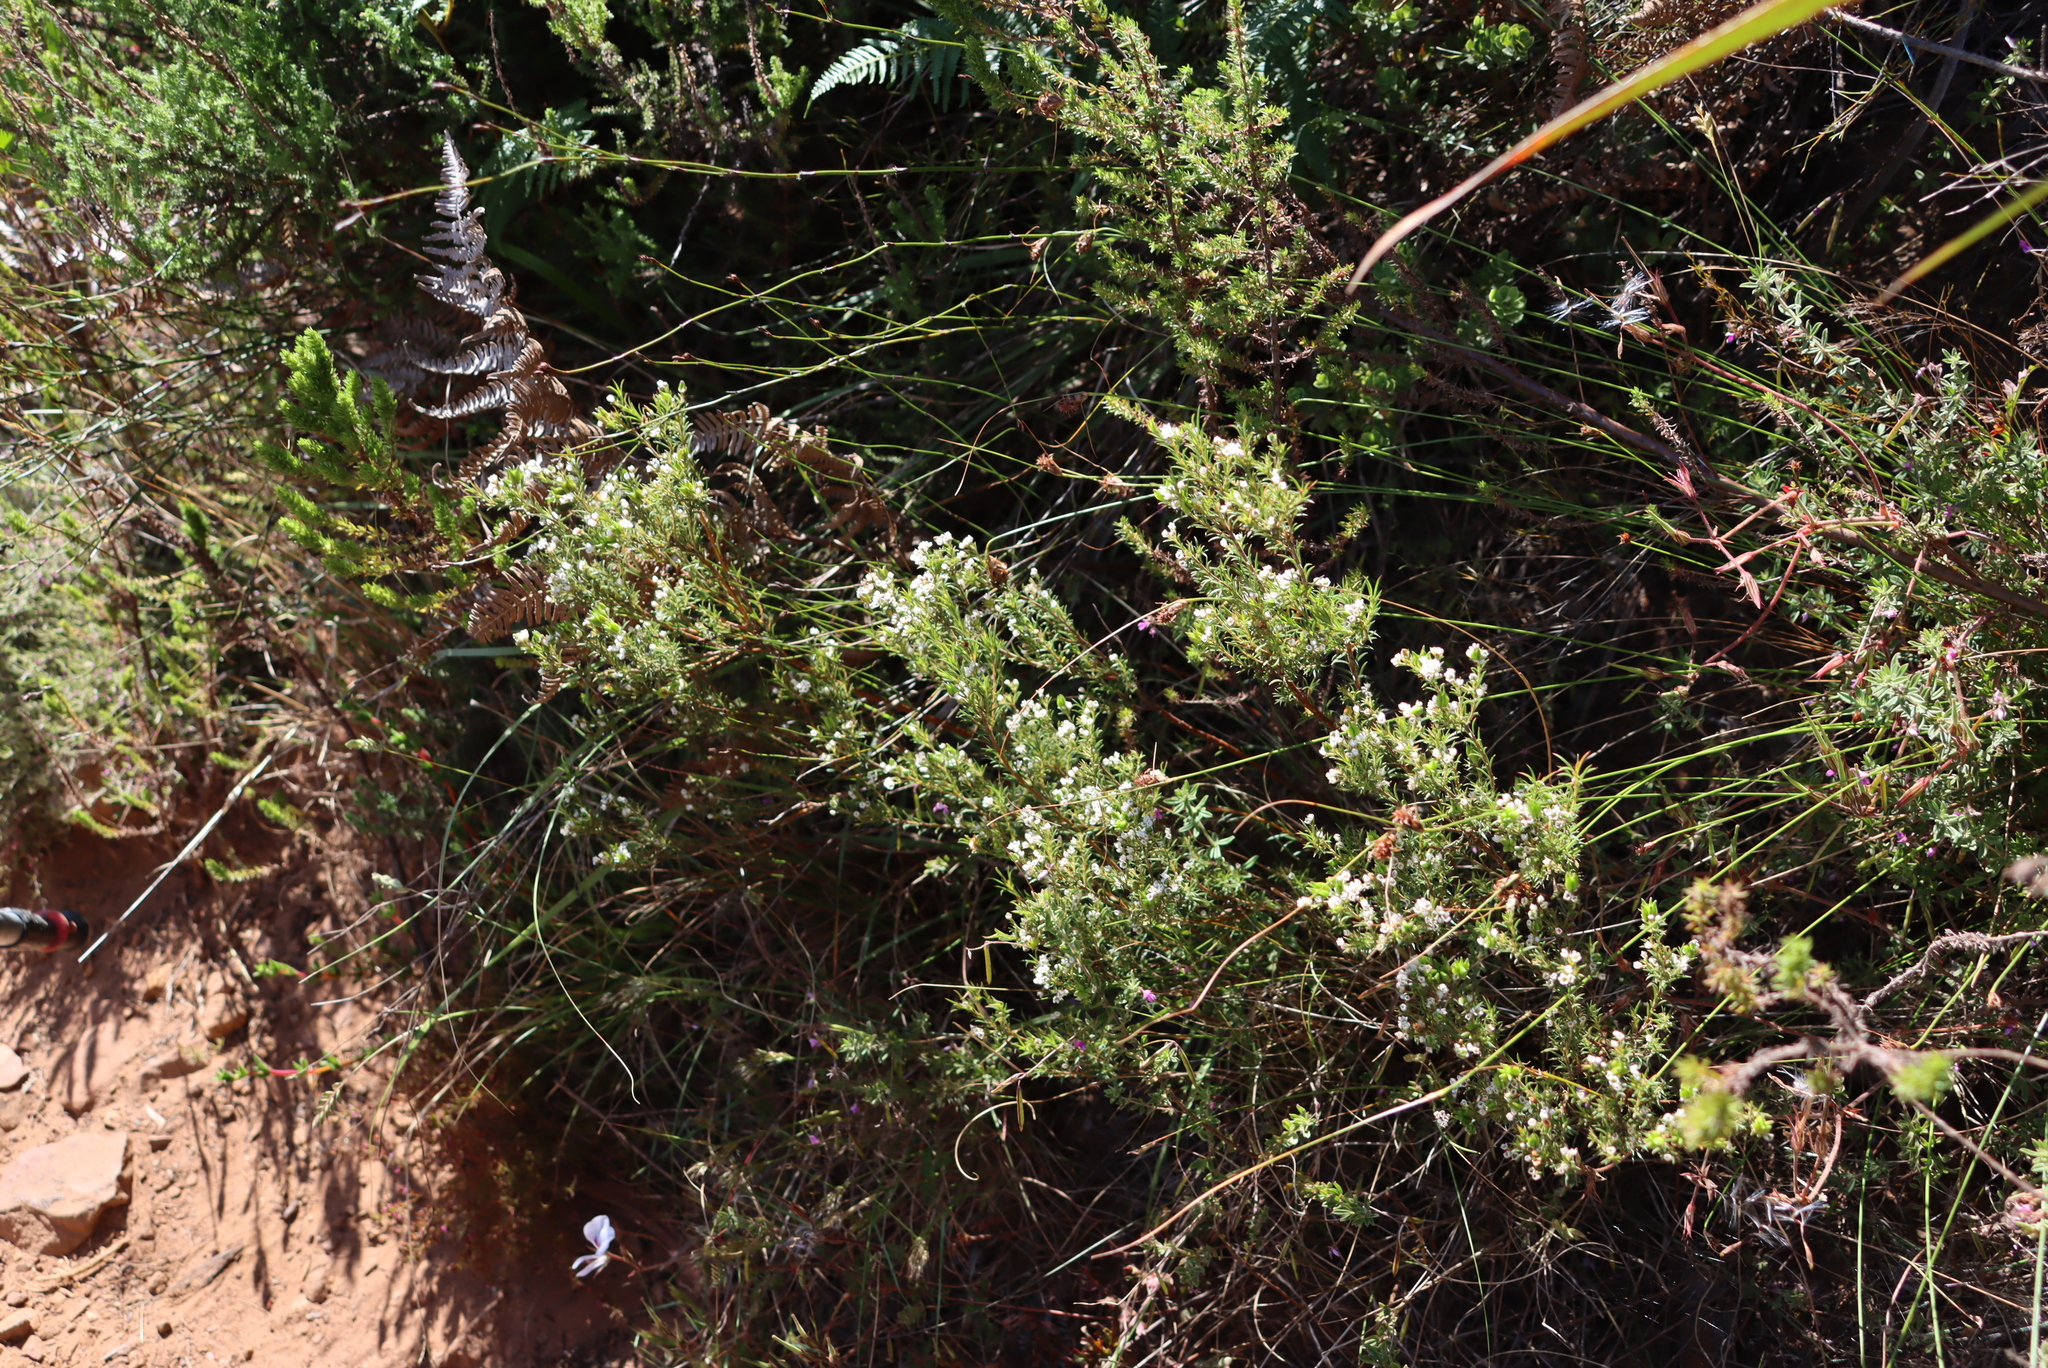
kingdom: Plantae
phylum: Tracheophyta
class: Magnoliopsida
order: Sapindales
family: Rutaceae
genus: Diosma
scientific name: Diosma hirsuta
